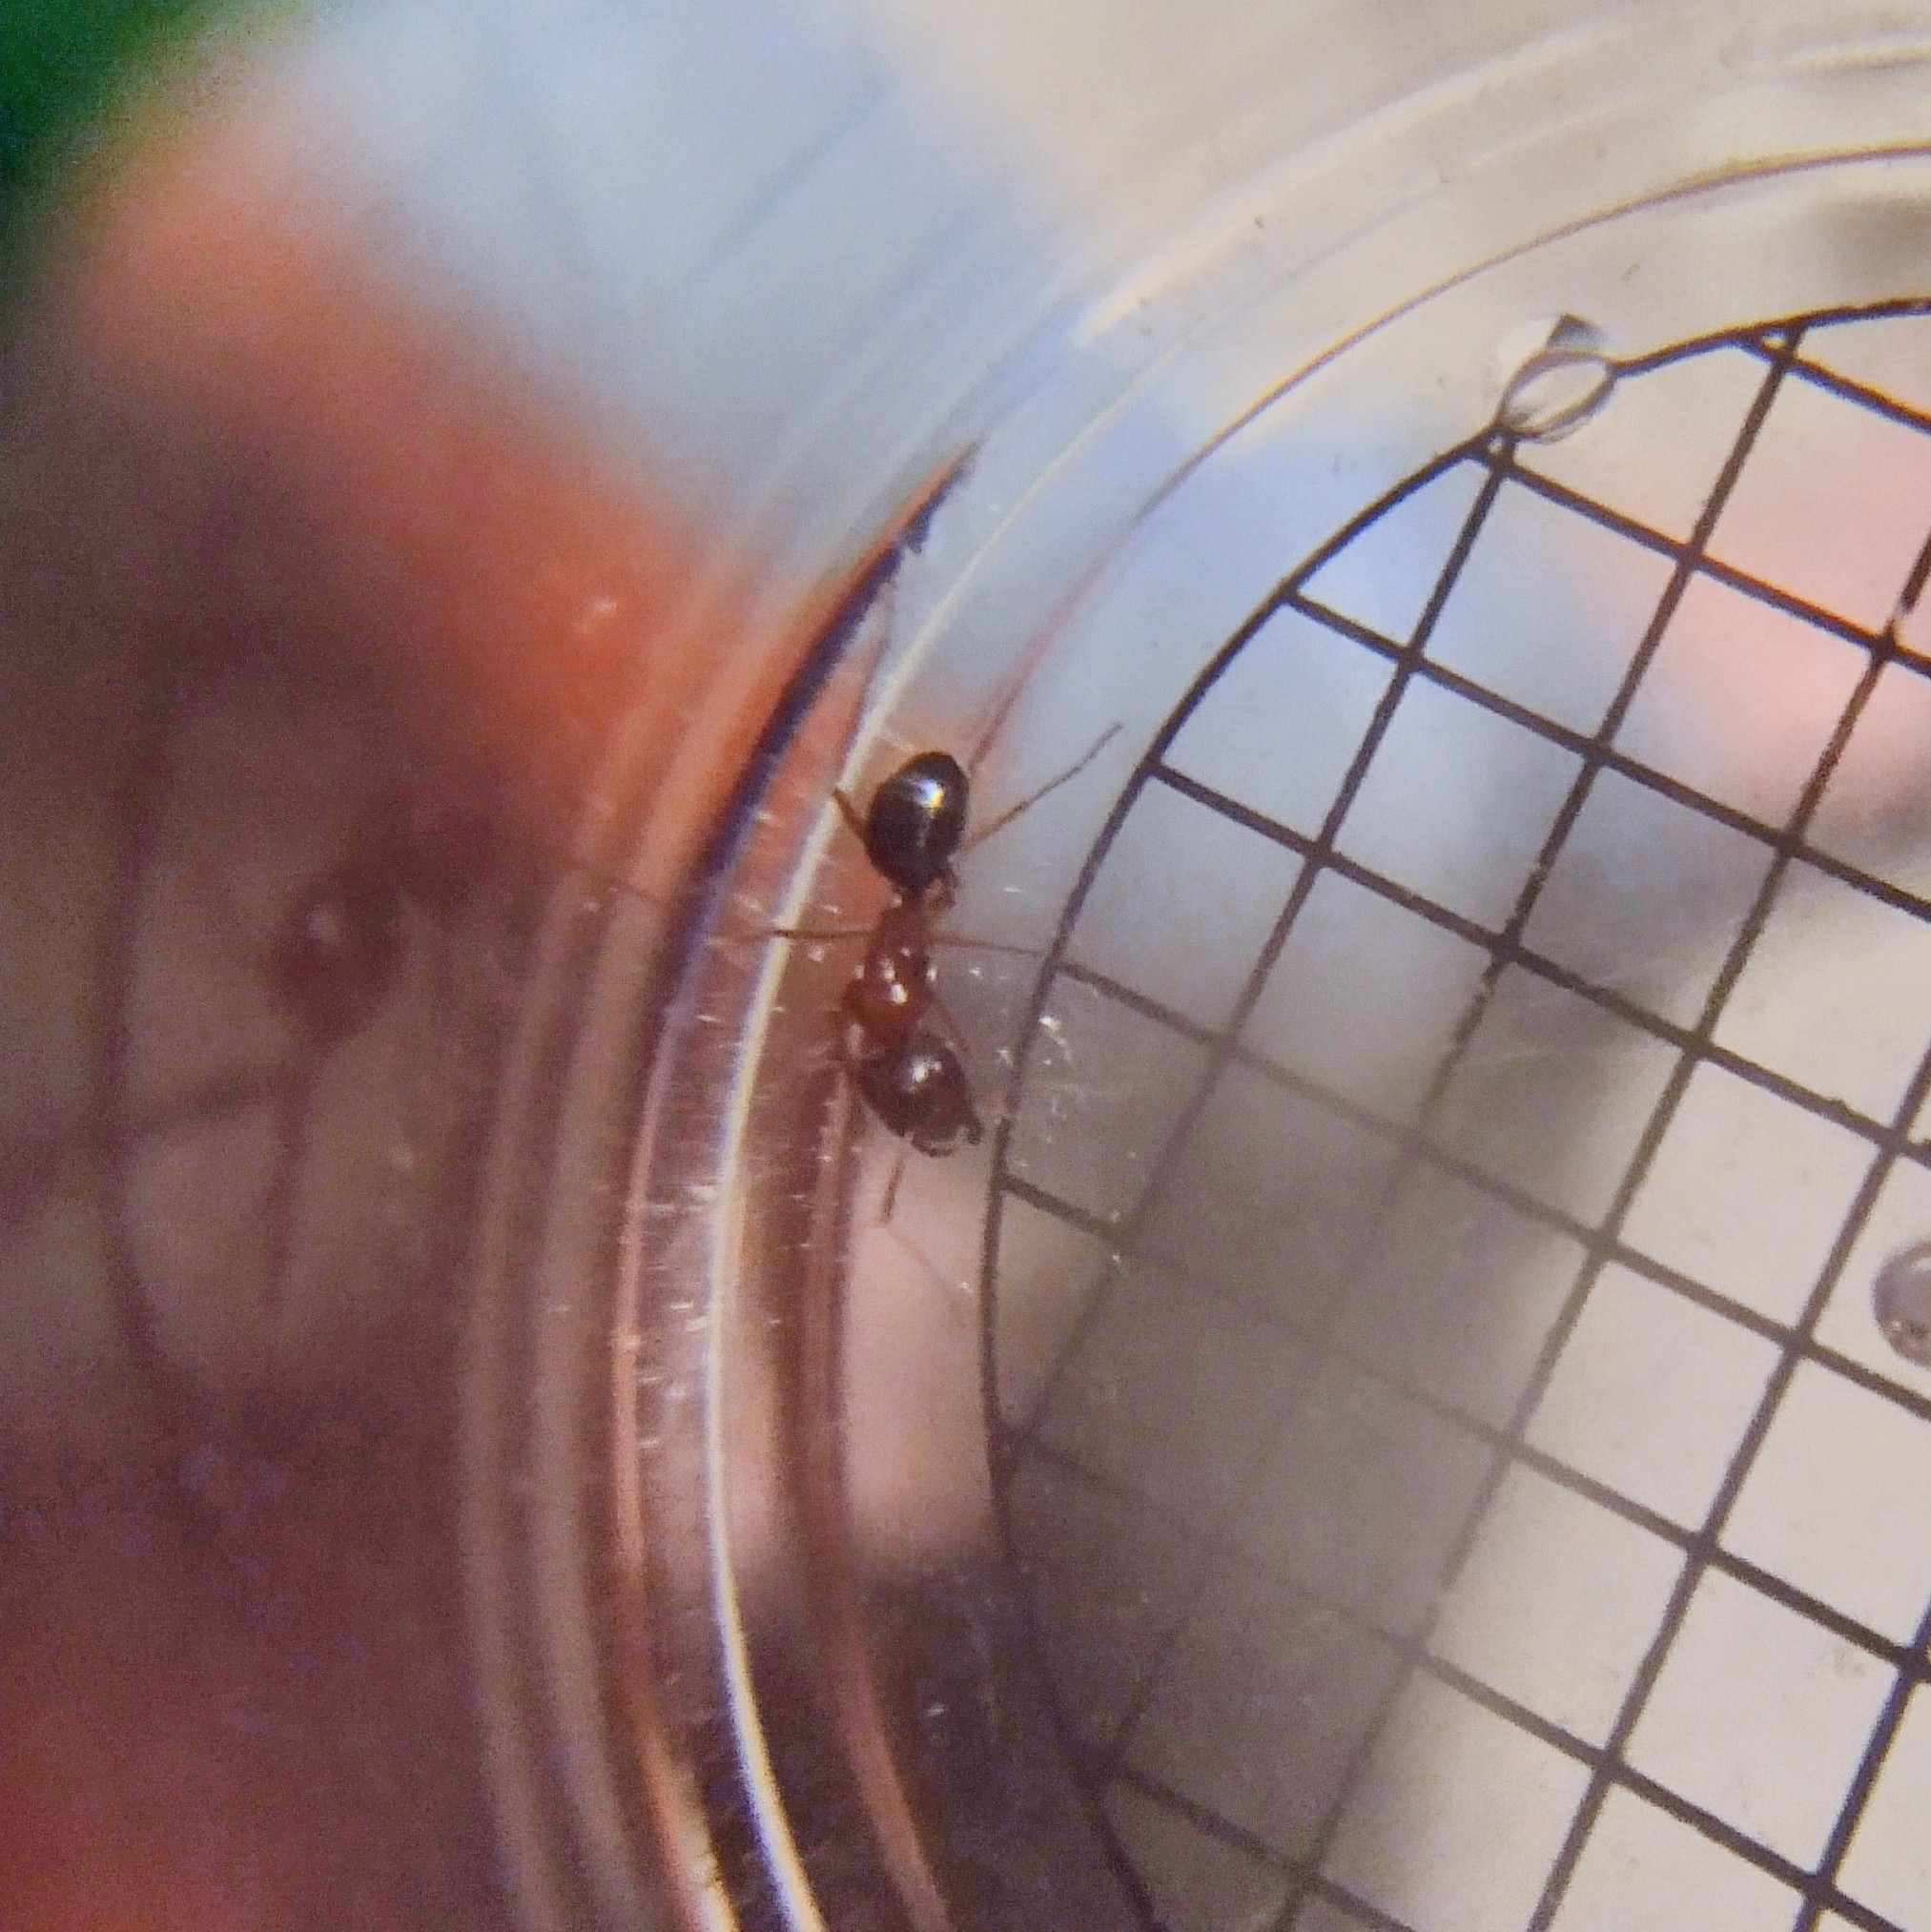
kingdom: Animalia
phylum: Arthropoda
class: Insecta
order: Hymenoptera
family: Formicidae
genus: Tanaemyrmex
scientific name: Tanaemyrmex
